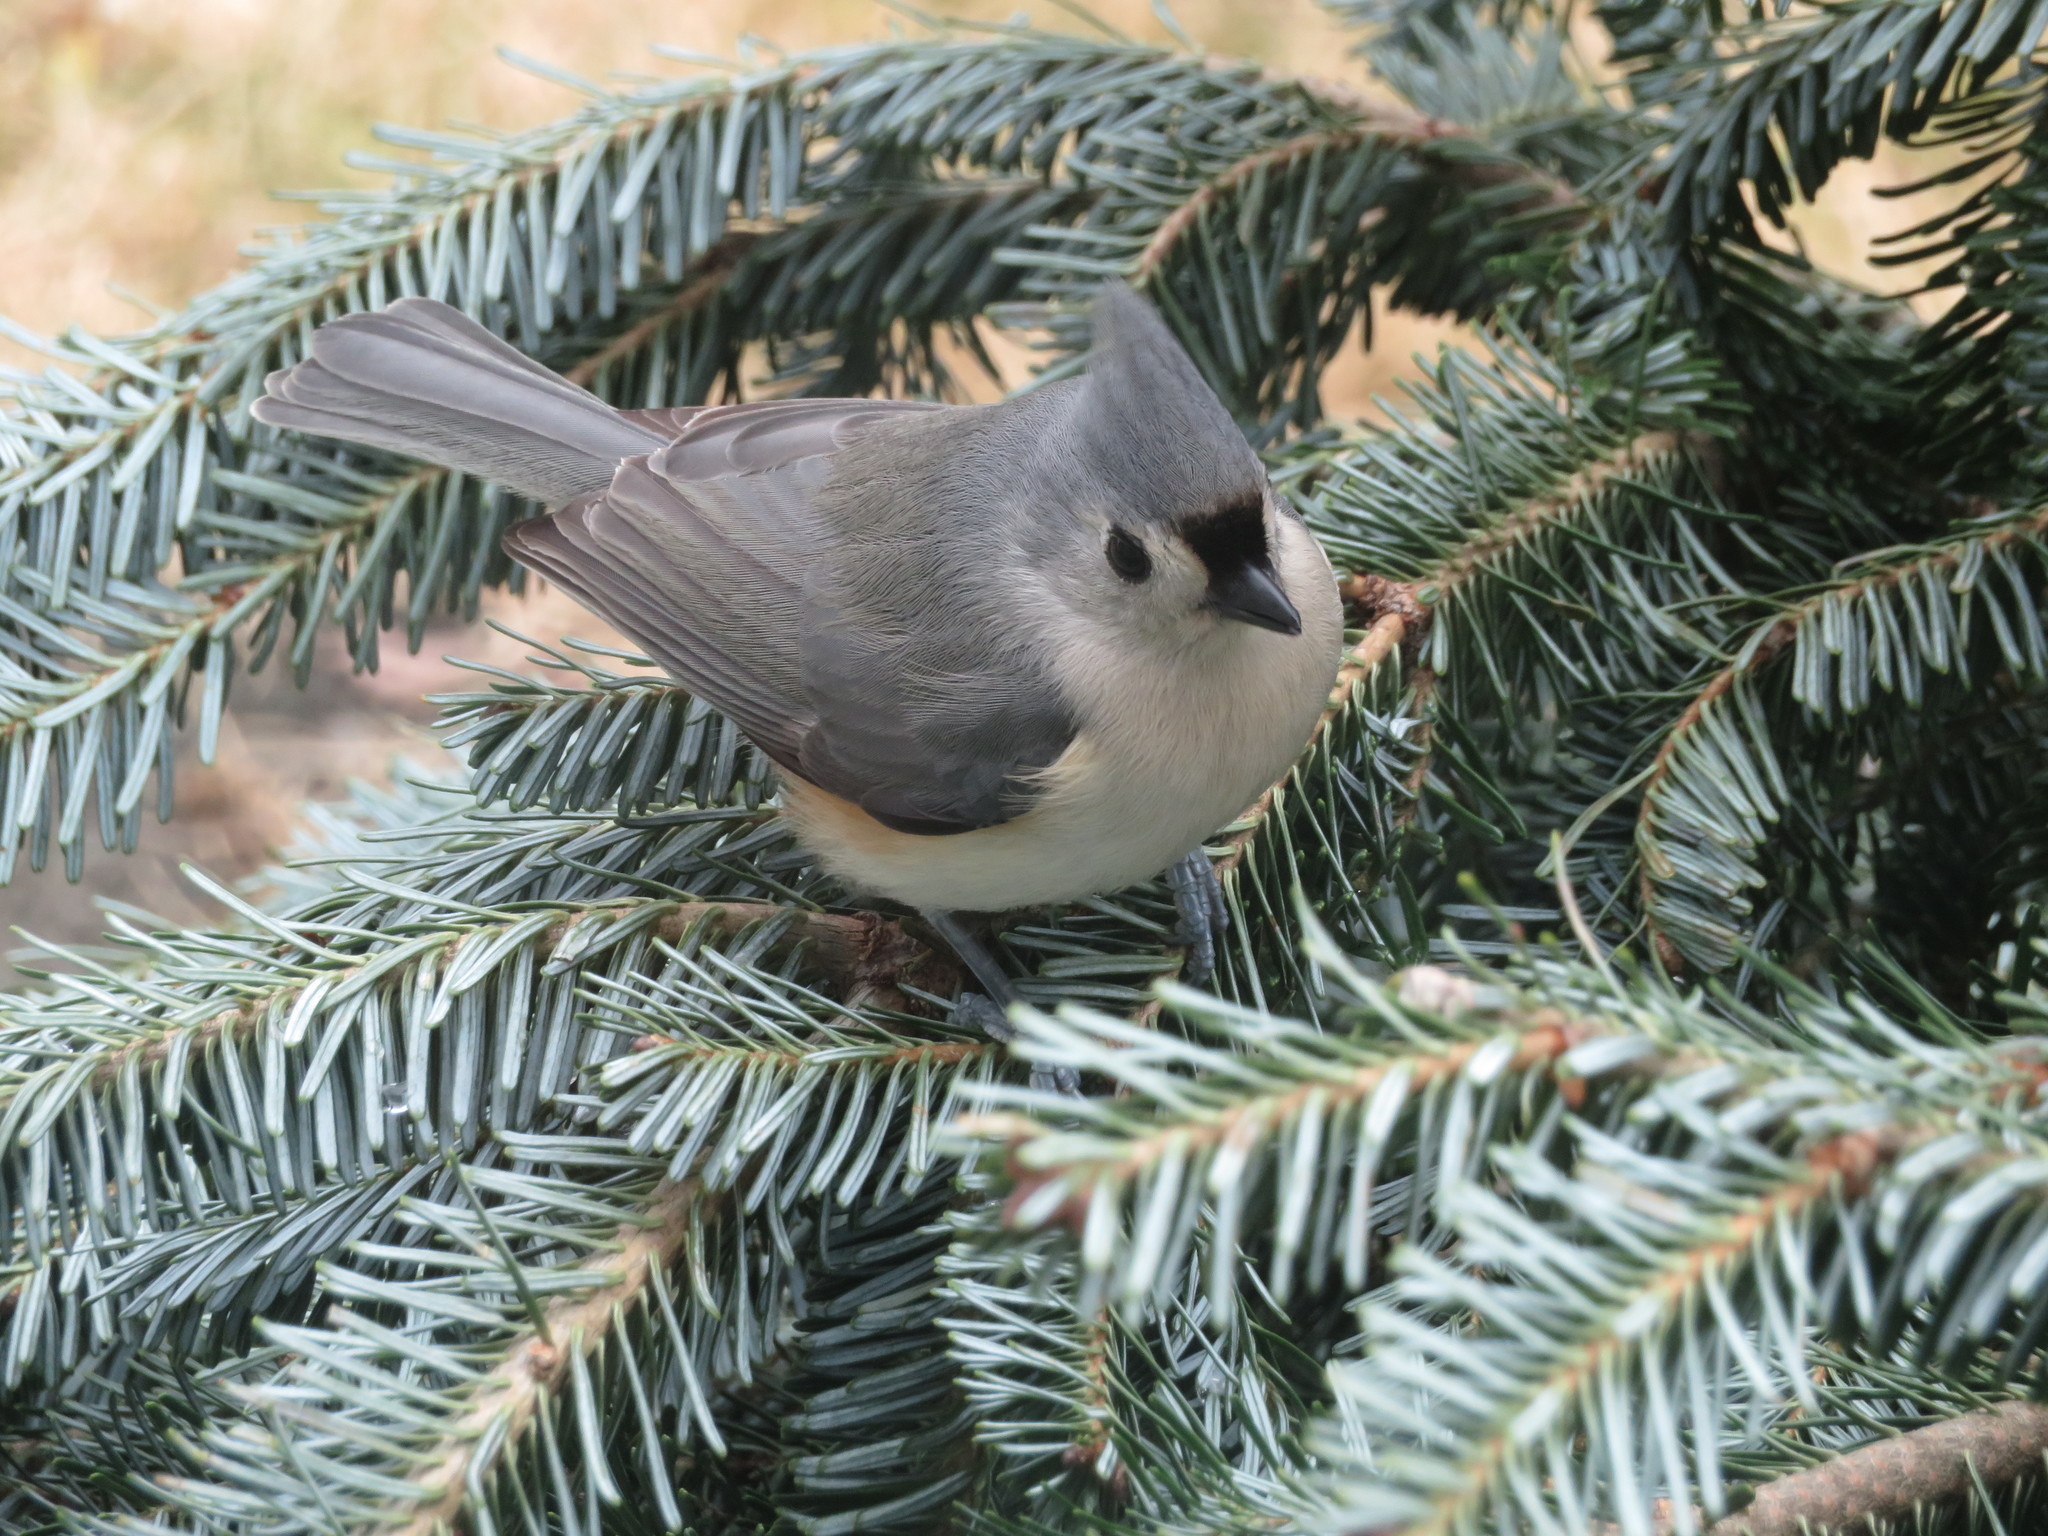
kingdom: Animalia
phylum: Chordata
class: Aves
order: Passeriformes
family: Paridae
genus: Baeolophus
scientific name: Baeolophus bicolor
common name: Tufted titmouse
